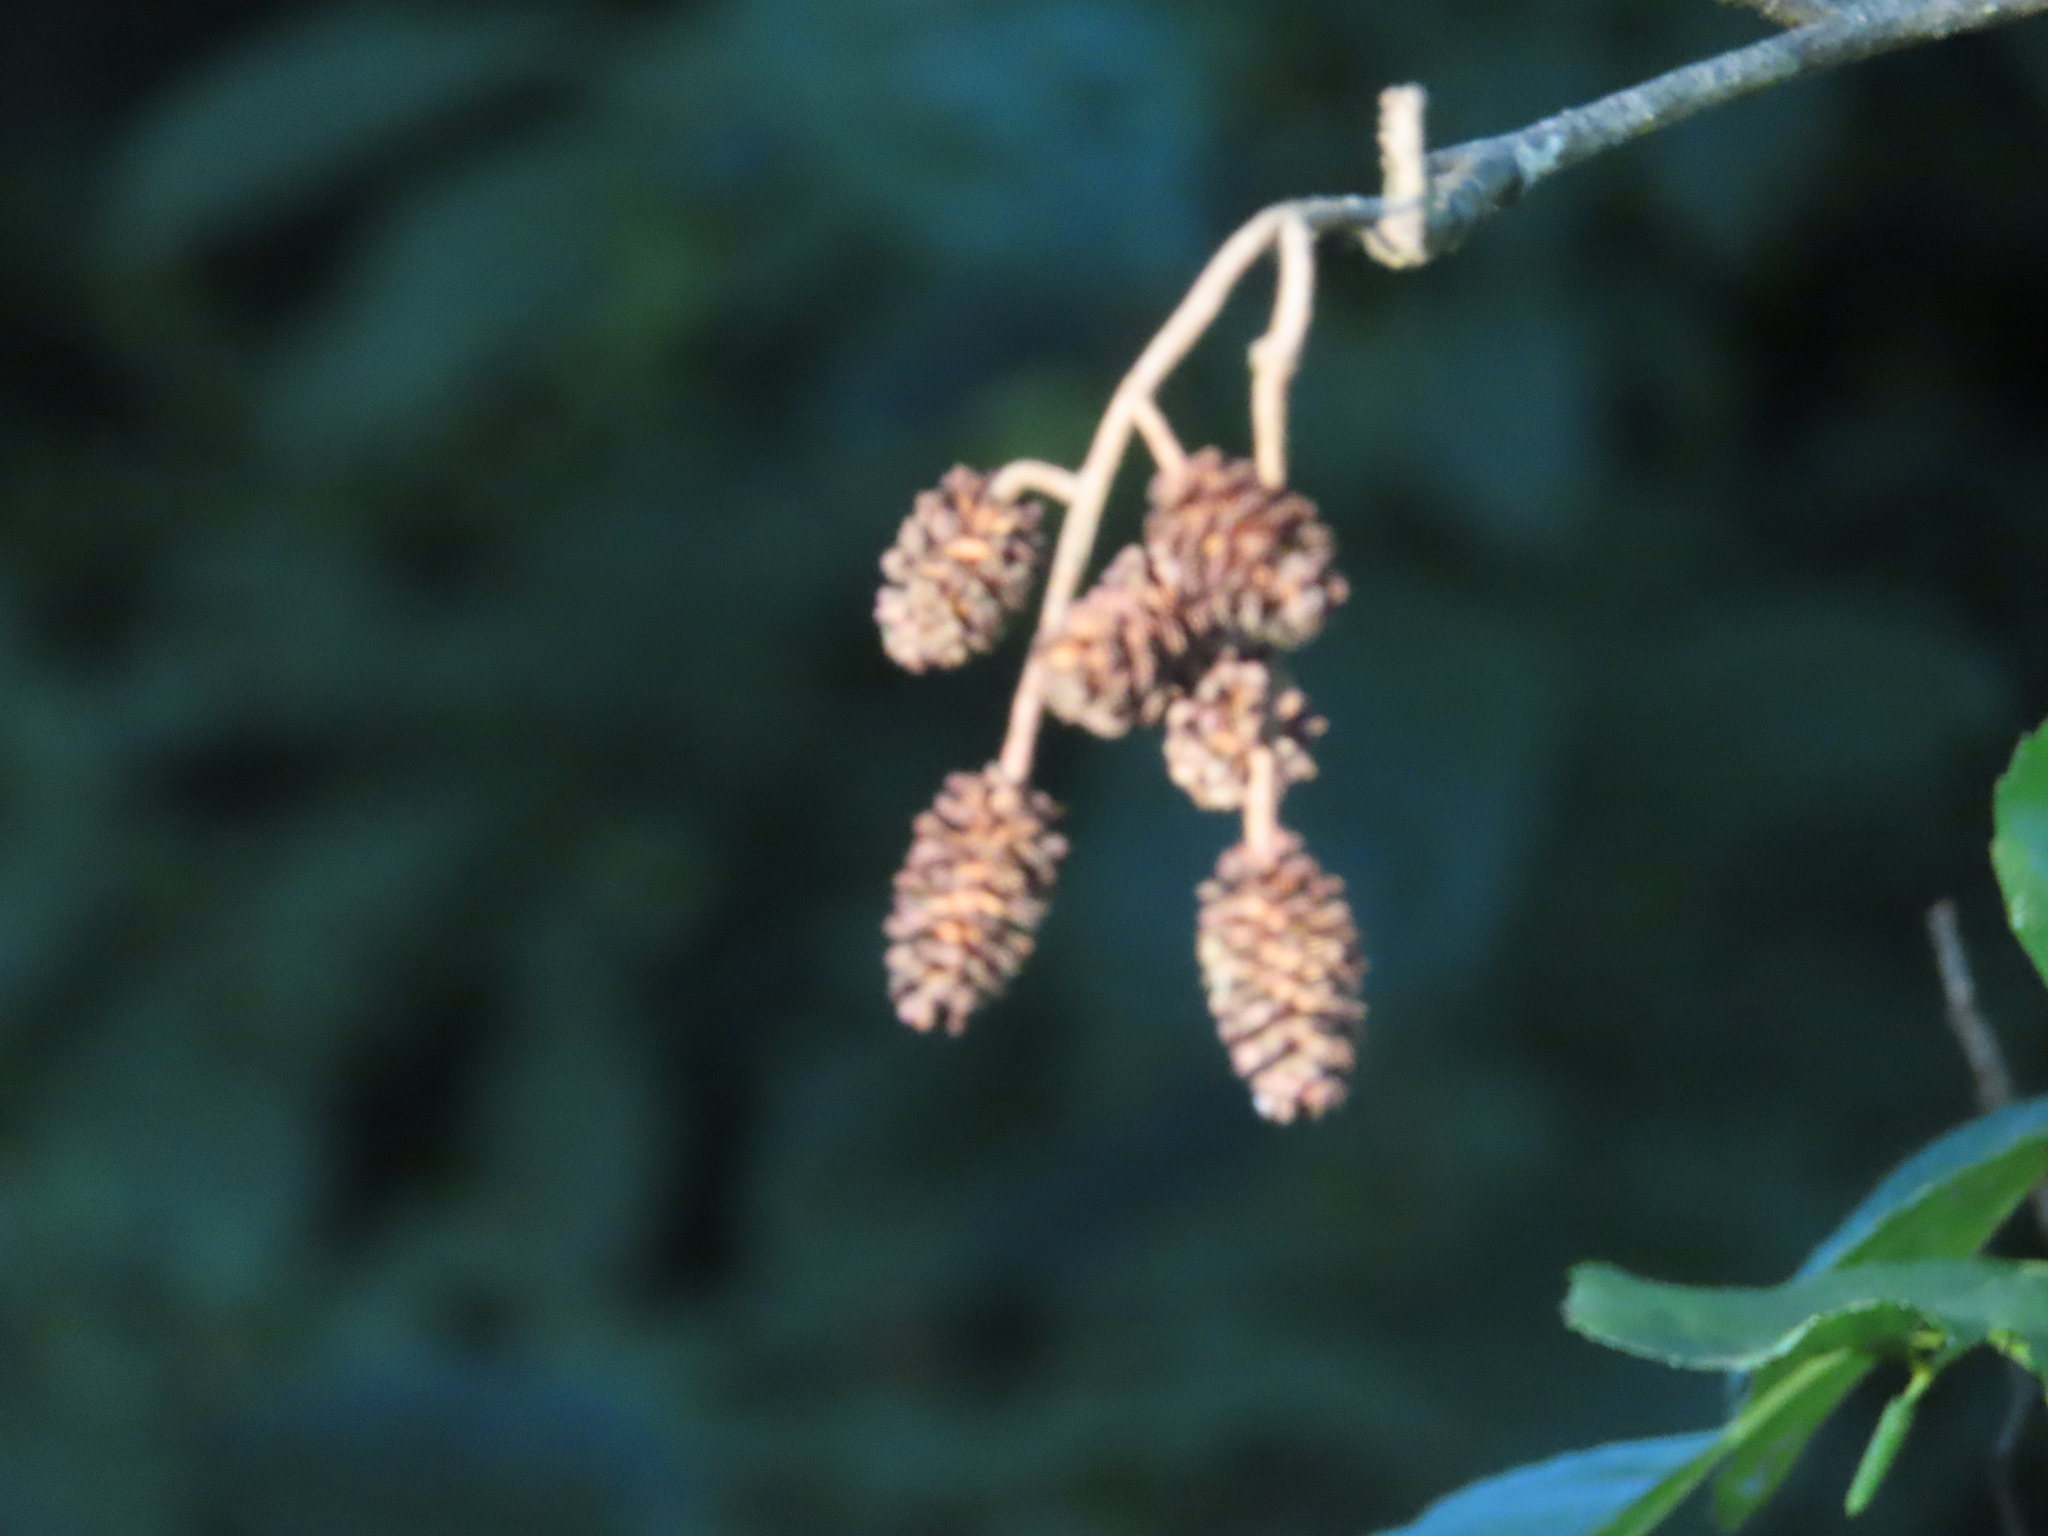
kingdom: Plantae
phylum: Tracheophyta
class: Magnoliopsida
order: Fagales
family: Betulaceae
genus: Alnus
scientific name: Alnus glutinosa
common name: Black alder
